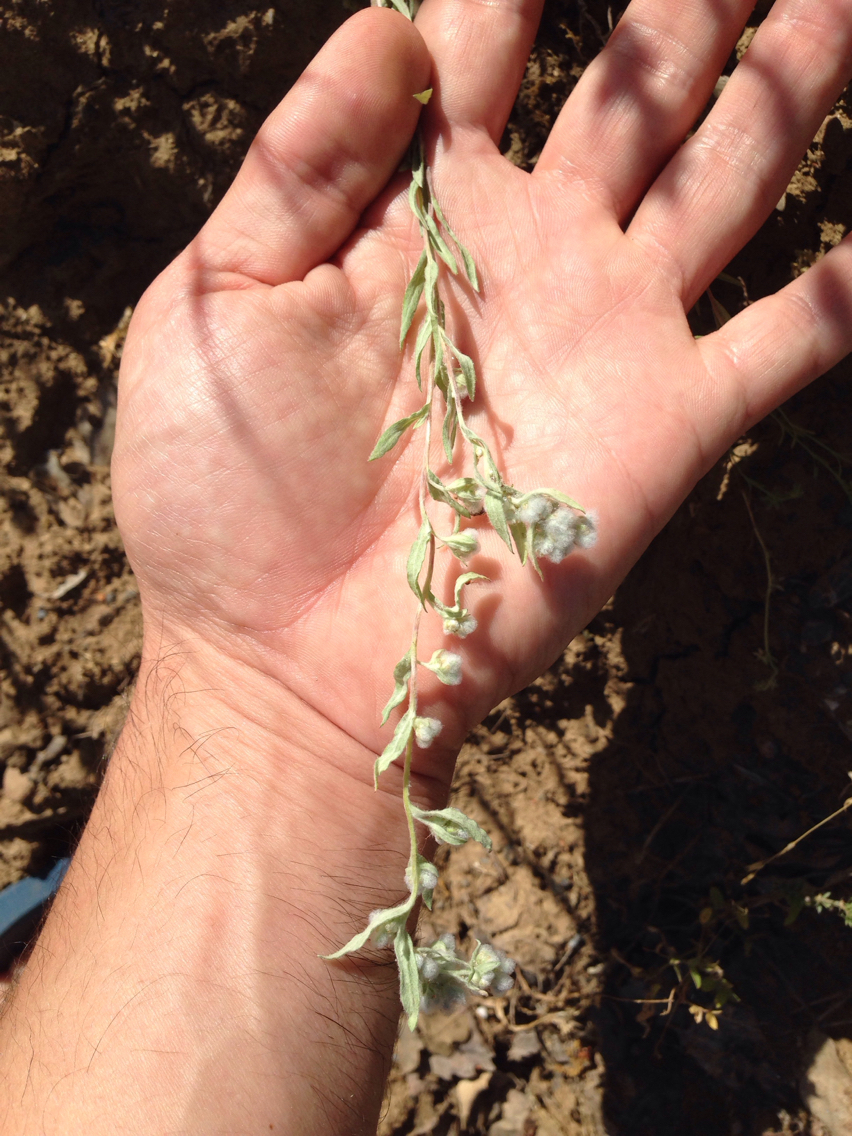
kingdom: Plantae
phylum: Tracheophyta
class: Magnoliopsida
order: Asterales
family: Asteraceae
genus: Bombycilaena
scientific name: Bombycilaena californica
